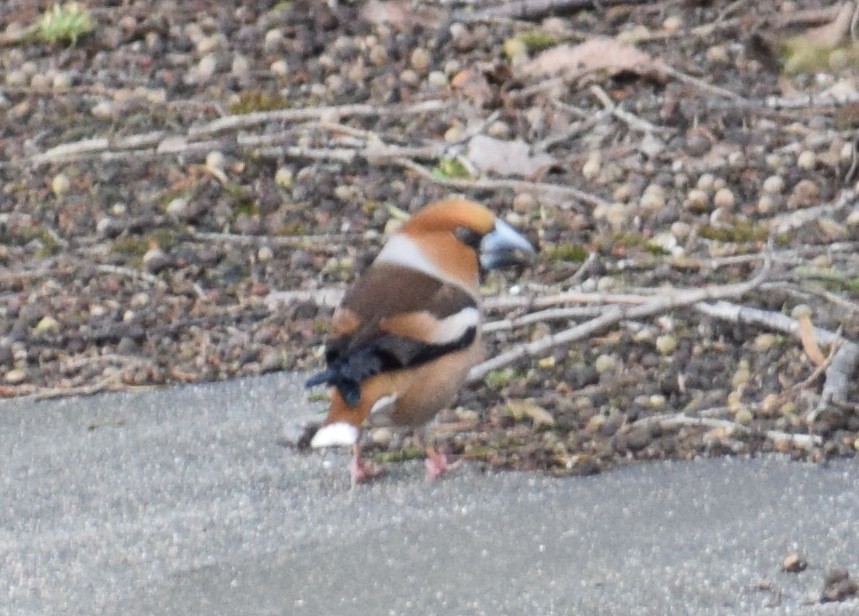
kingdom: Animalia
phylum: Chordata
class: Aves
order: Passeriformes
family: Fringillidae
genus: Coccothraustes
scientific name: Coccothraustes coccothraustes
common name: Hawfinch
